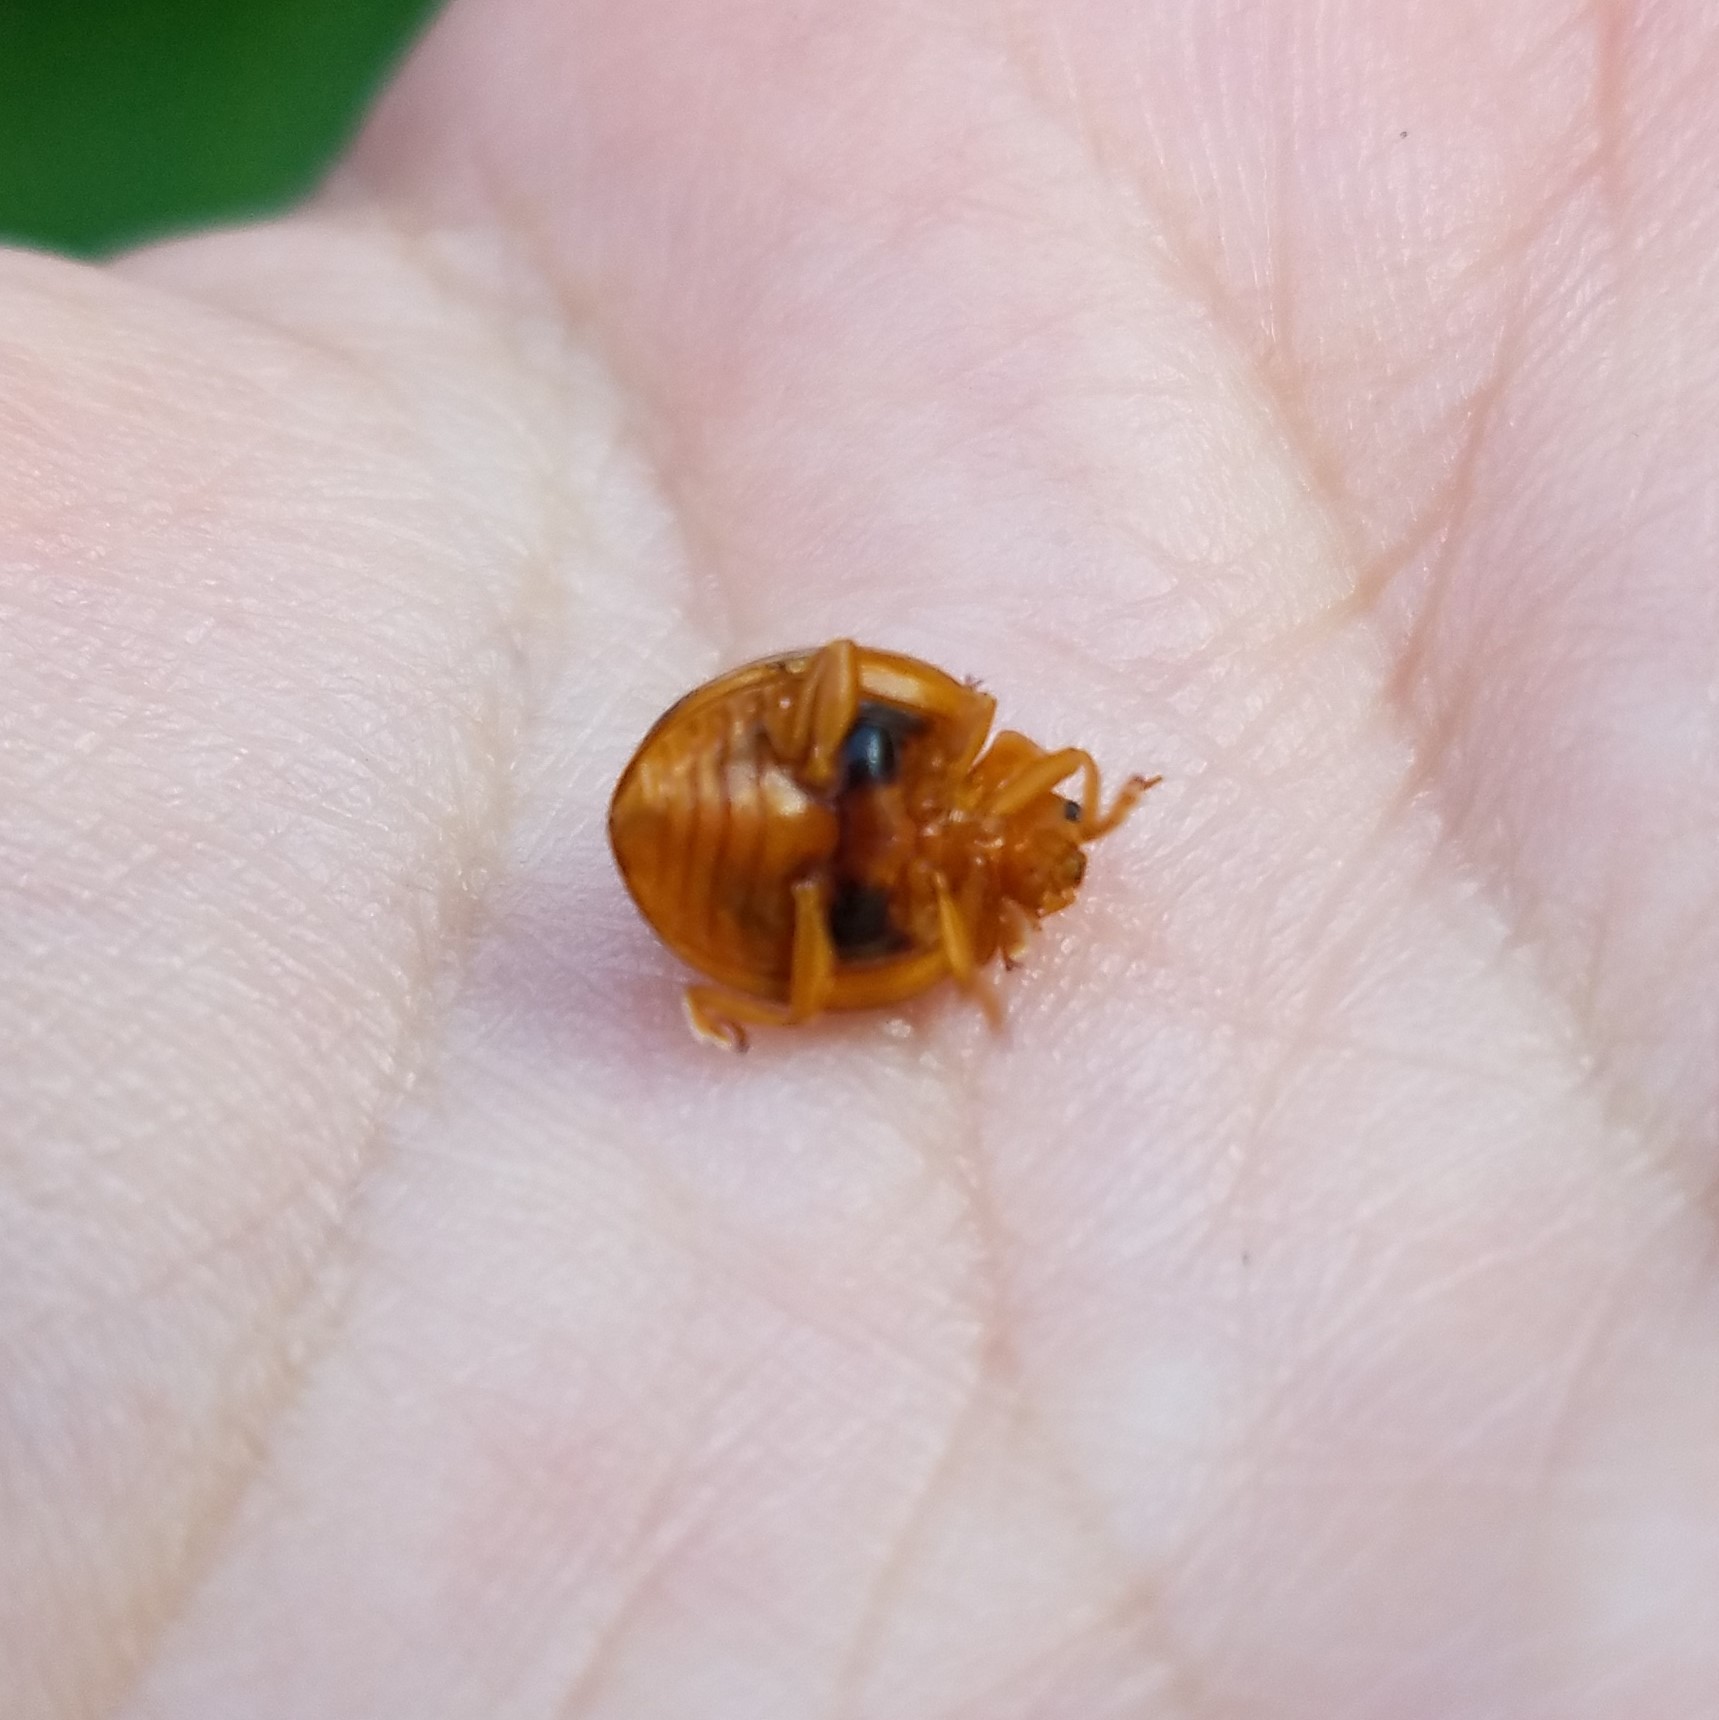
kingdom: Animalia
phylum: Arthropoda
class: Insecta
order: Coleoptera
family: Coccinellidae
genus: Epilachna
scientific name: Epilachna borealis
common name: Squash beetle
